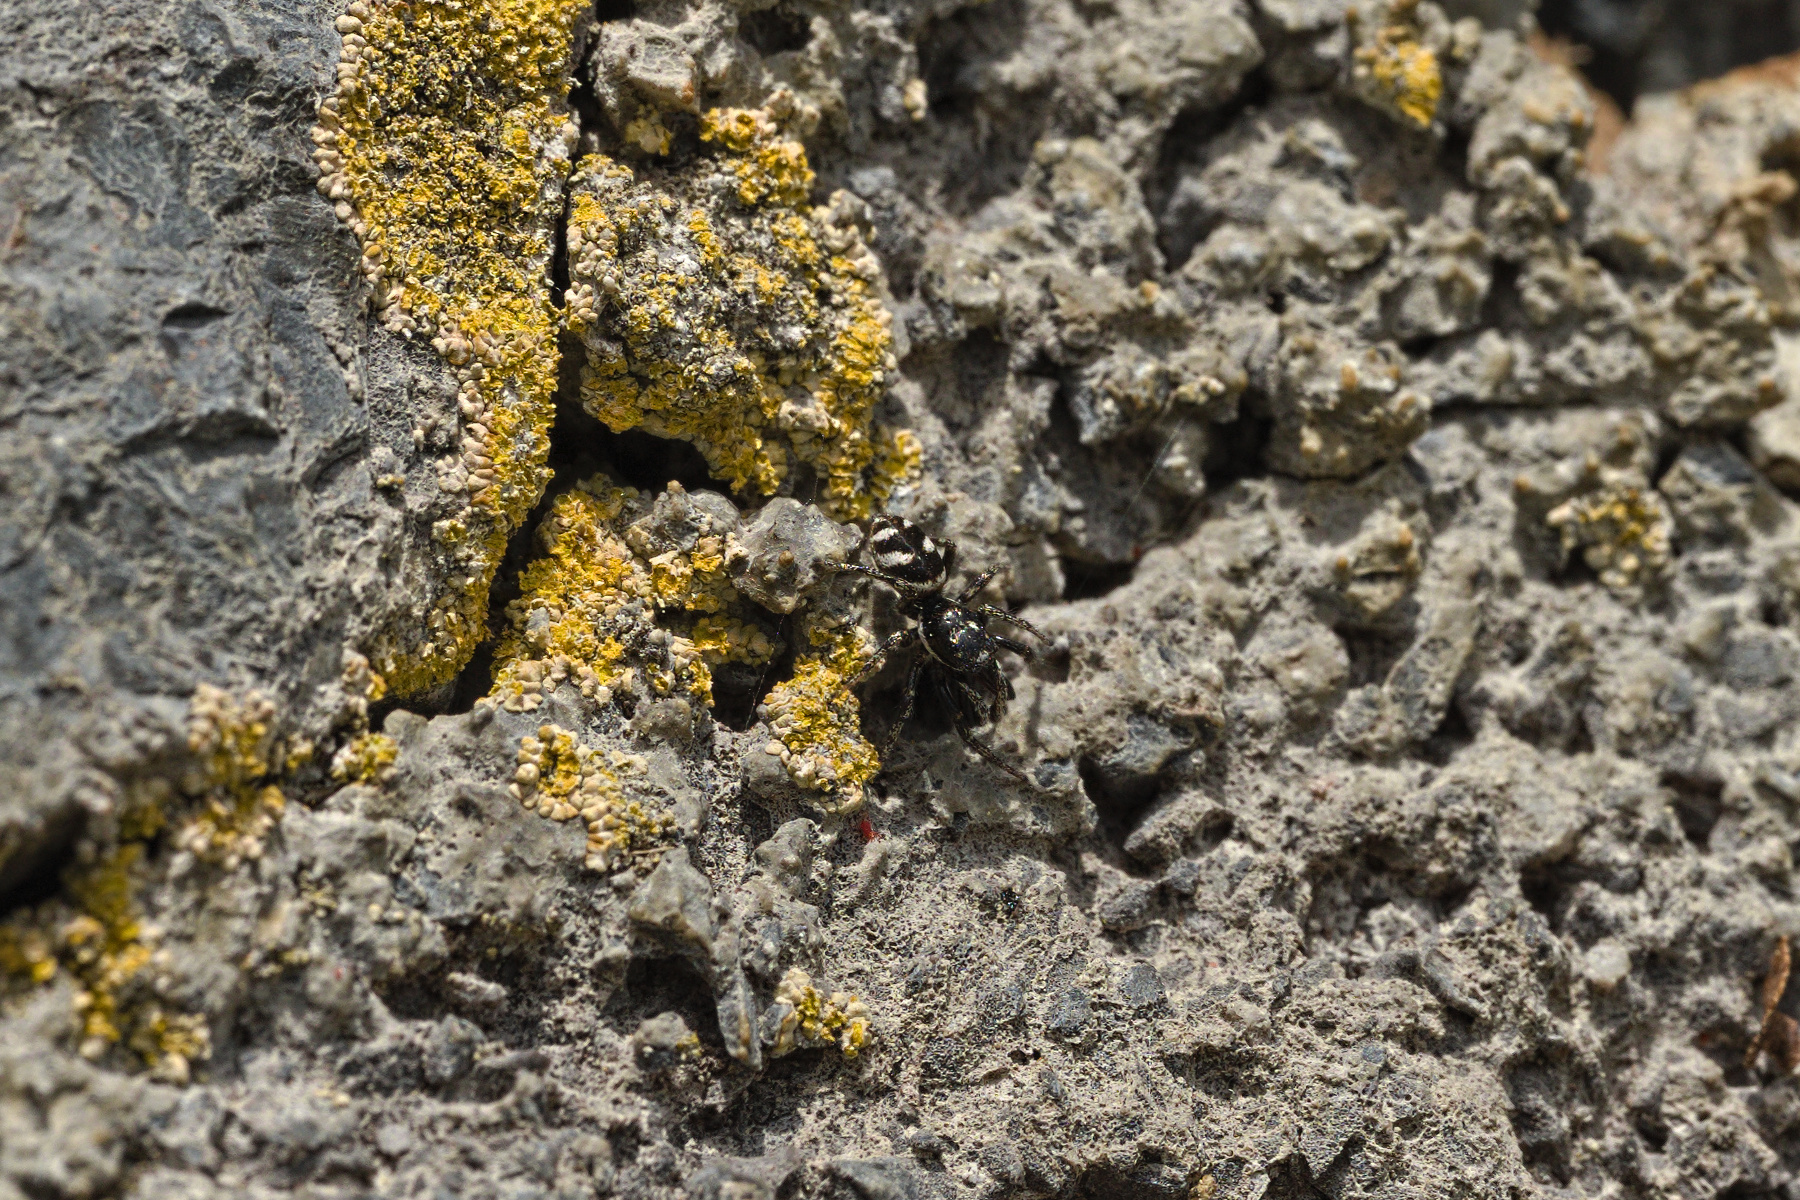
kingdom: Animalia
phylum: Arthropoda
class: Arachnida
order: Araneae
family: Salticidae
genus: Salticus
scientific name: Salticus scenicus
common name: Zebra jumper
